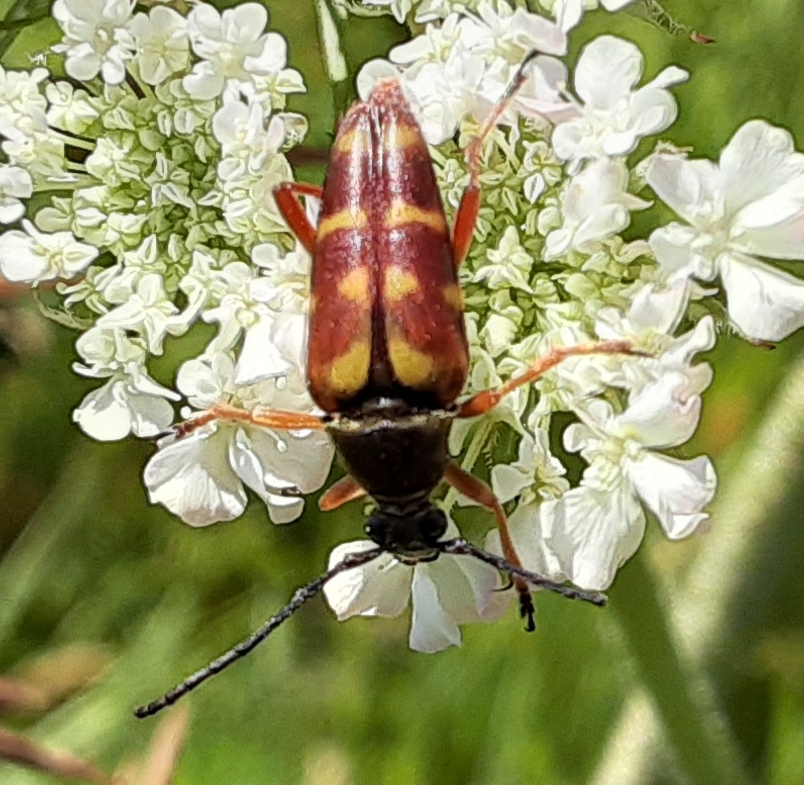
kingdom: Animalia
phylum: Arthropoda
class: Insecta
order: Coleoptera
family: Cerambycidae
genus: Typocerus
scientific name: Typocerus velutinus
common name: Banded longhorn beetle
